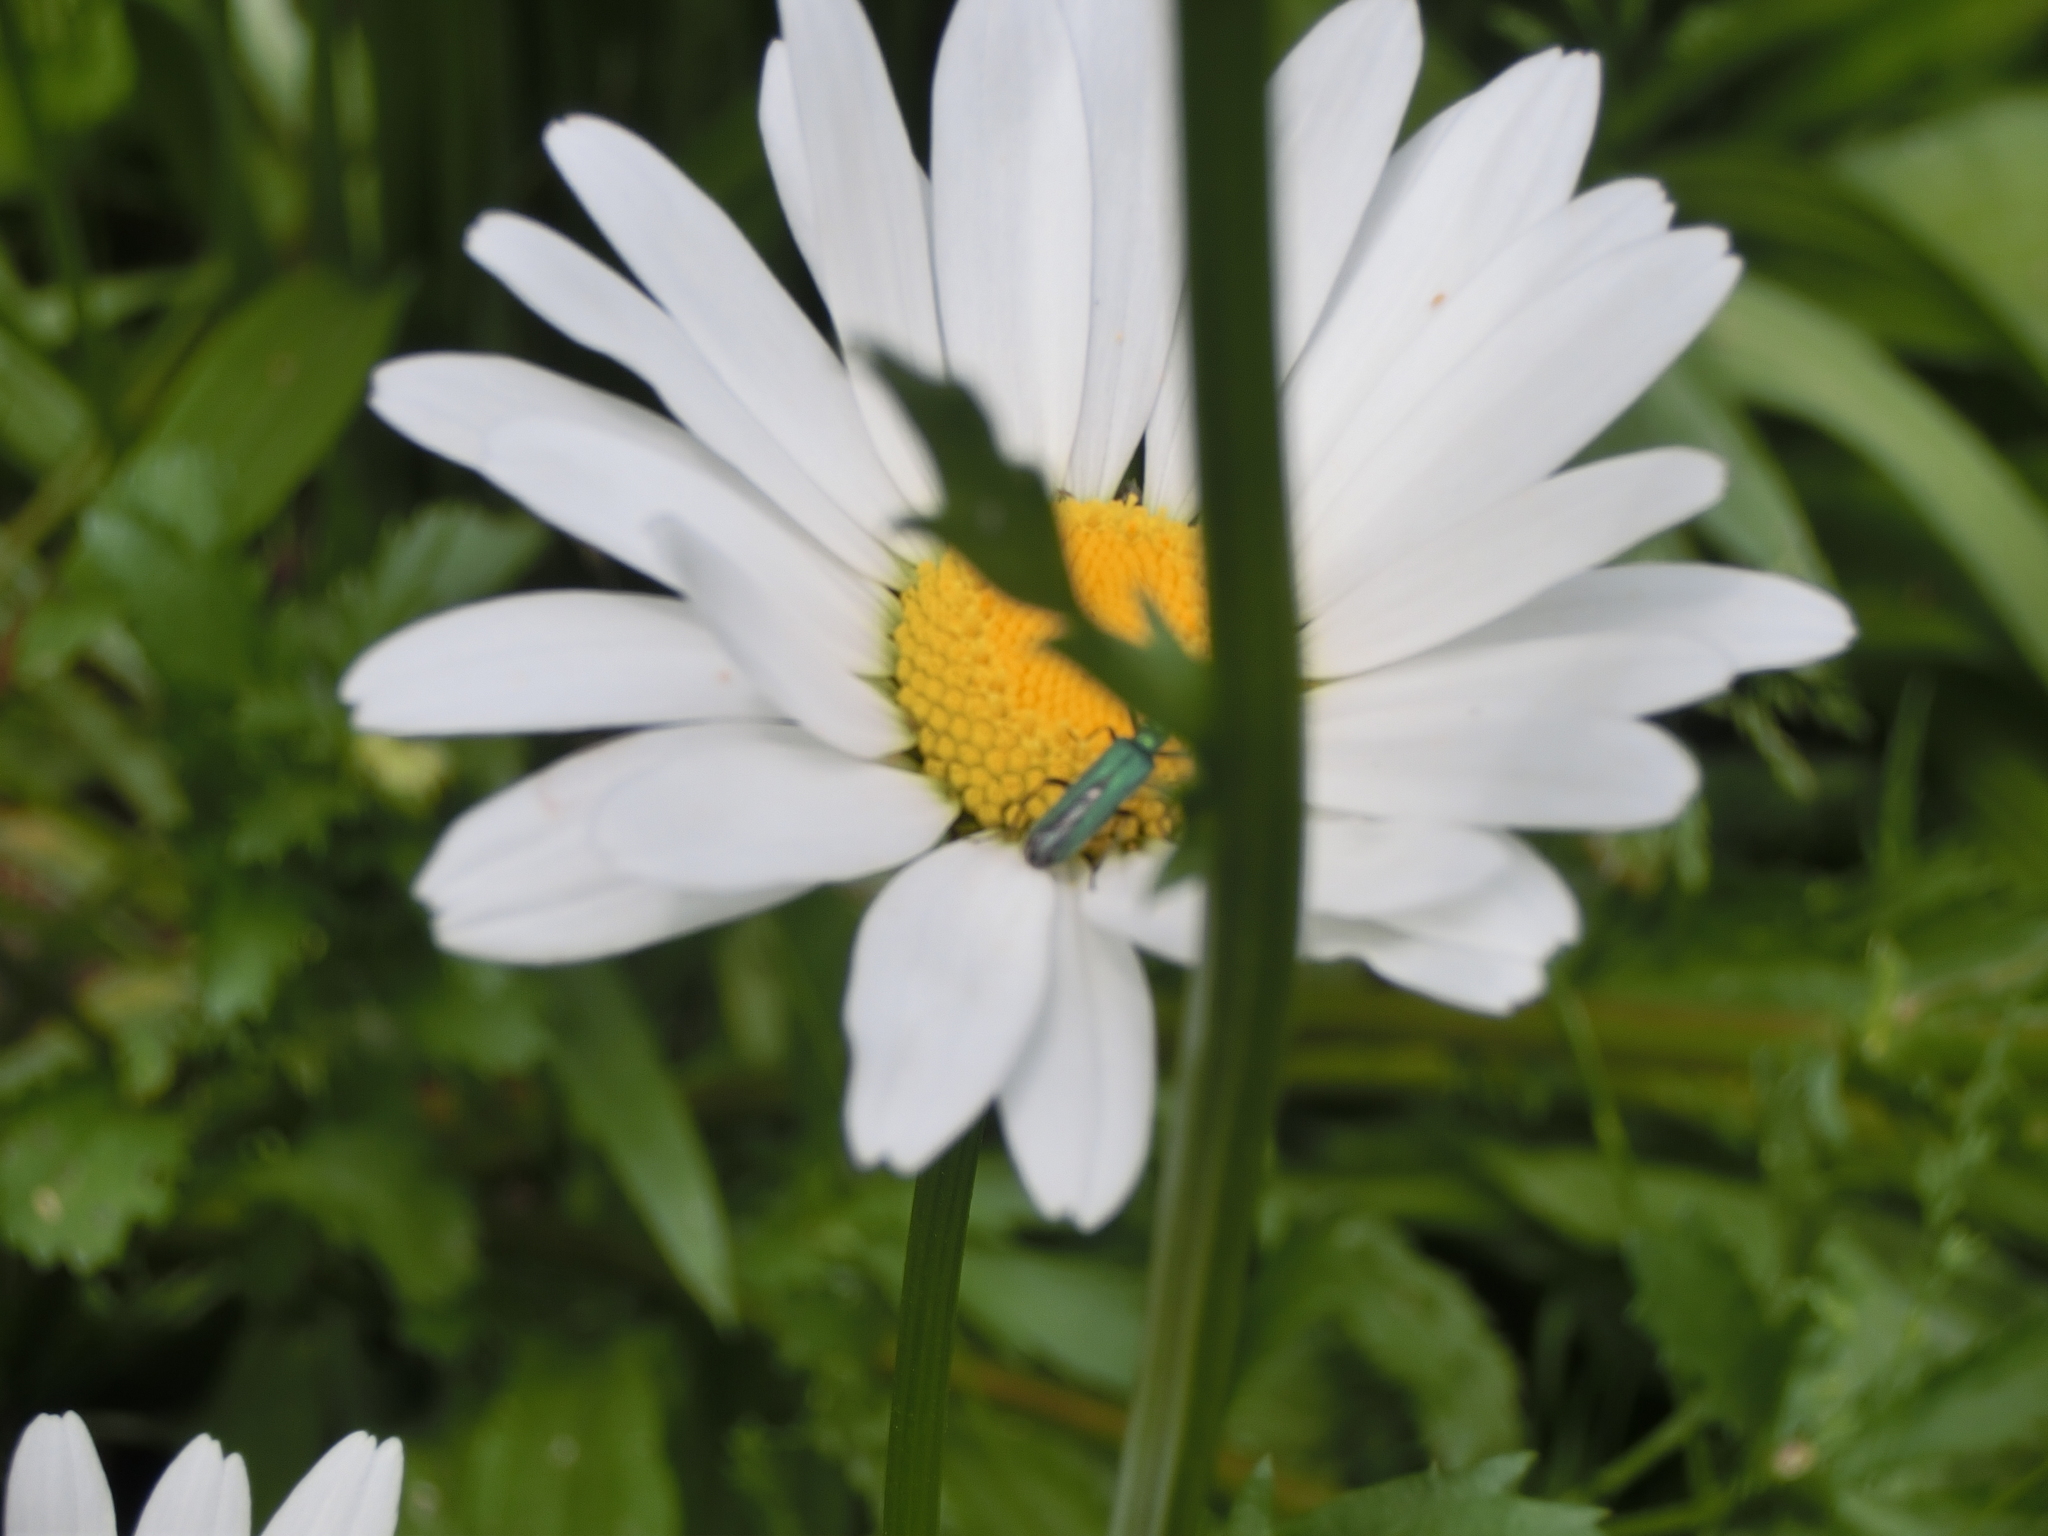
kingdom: Animalia
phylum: Arthropoda
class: Insecta
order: Coleoptera
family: Oedemeridae
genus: Oedemera
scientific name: Oedemera nobilis
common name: Swollen-thighed beetle
